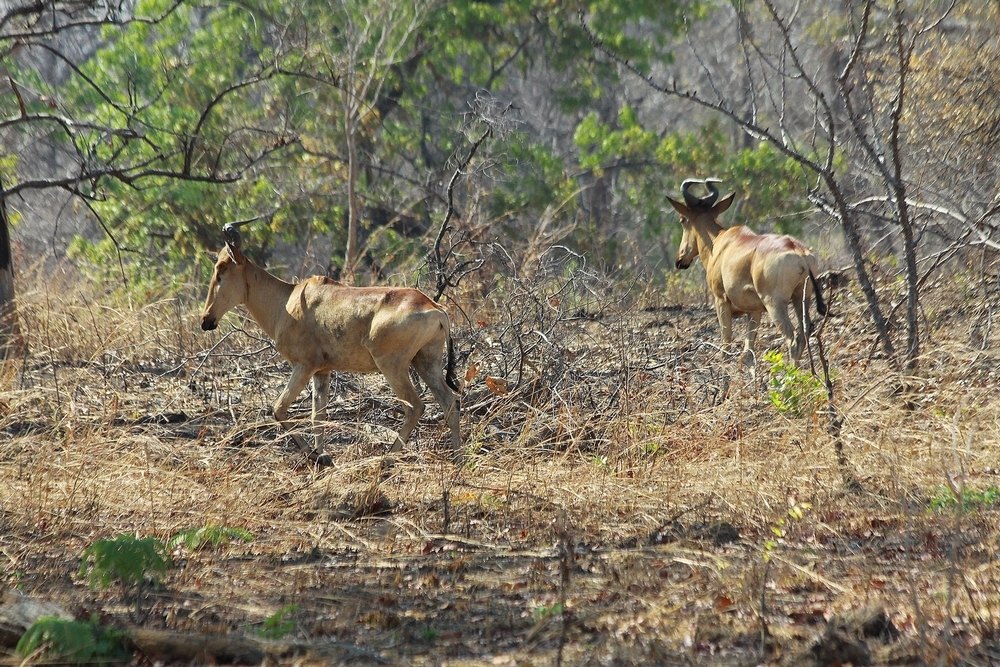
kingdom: Animalia
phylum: Chordata
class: Mammalia
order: Artiodactyla
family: Bovidae
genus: Alcelaphus
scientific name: Alcelaphus buselaphus
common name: Hartebeest
